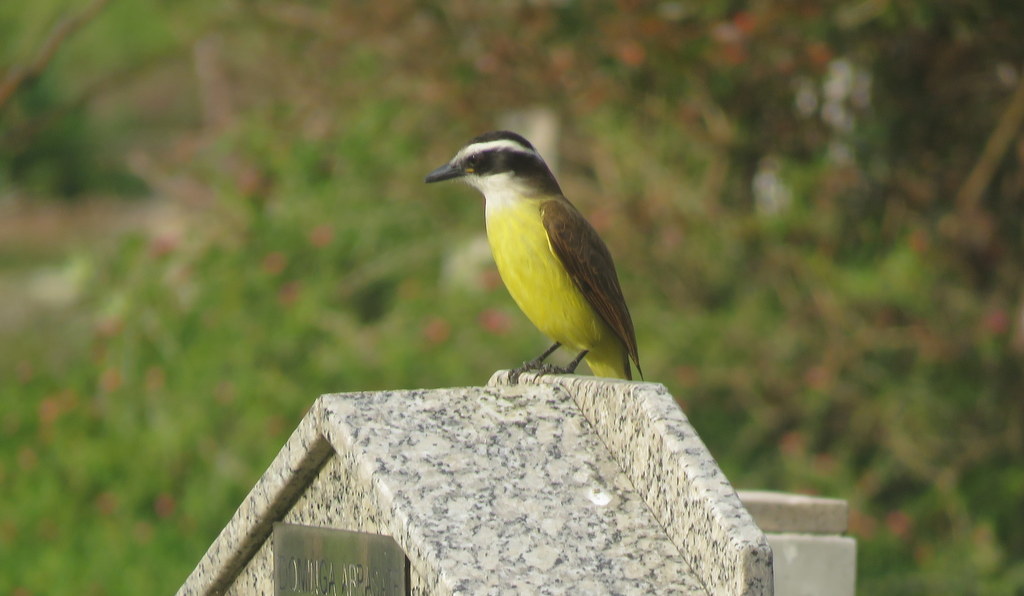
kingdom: Animalia
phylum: Chordata
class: Aves
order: Passeriformes
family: Tyrannidae
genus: Pitangus
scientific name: Pitangus sulphuratus
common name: Great kiskadee
